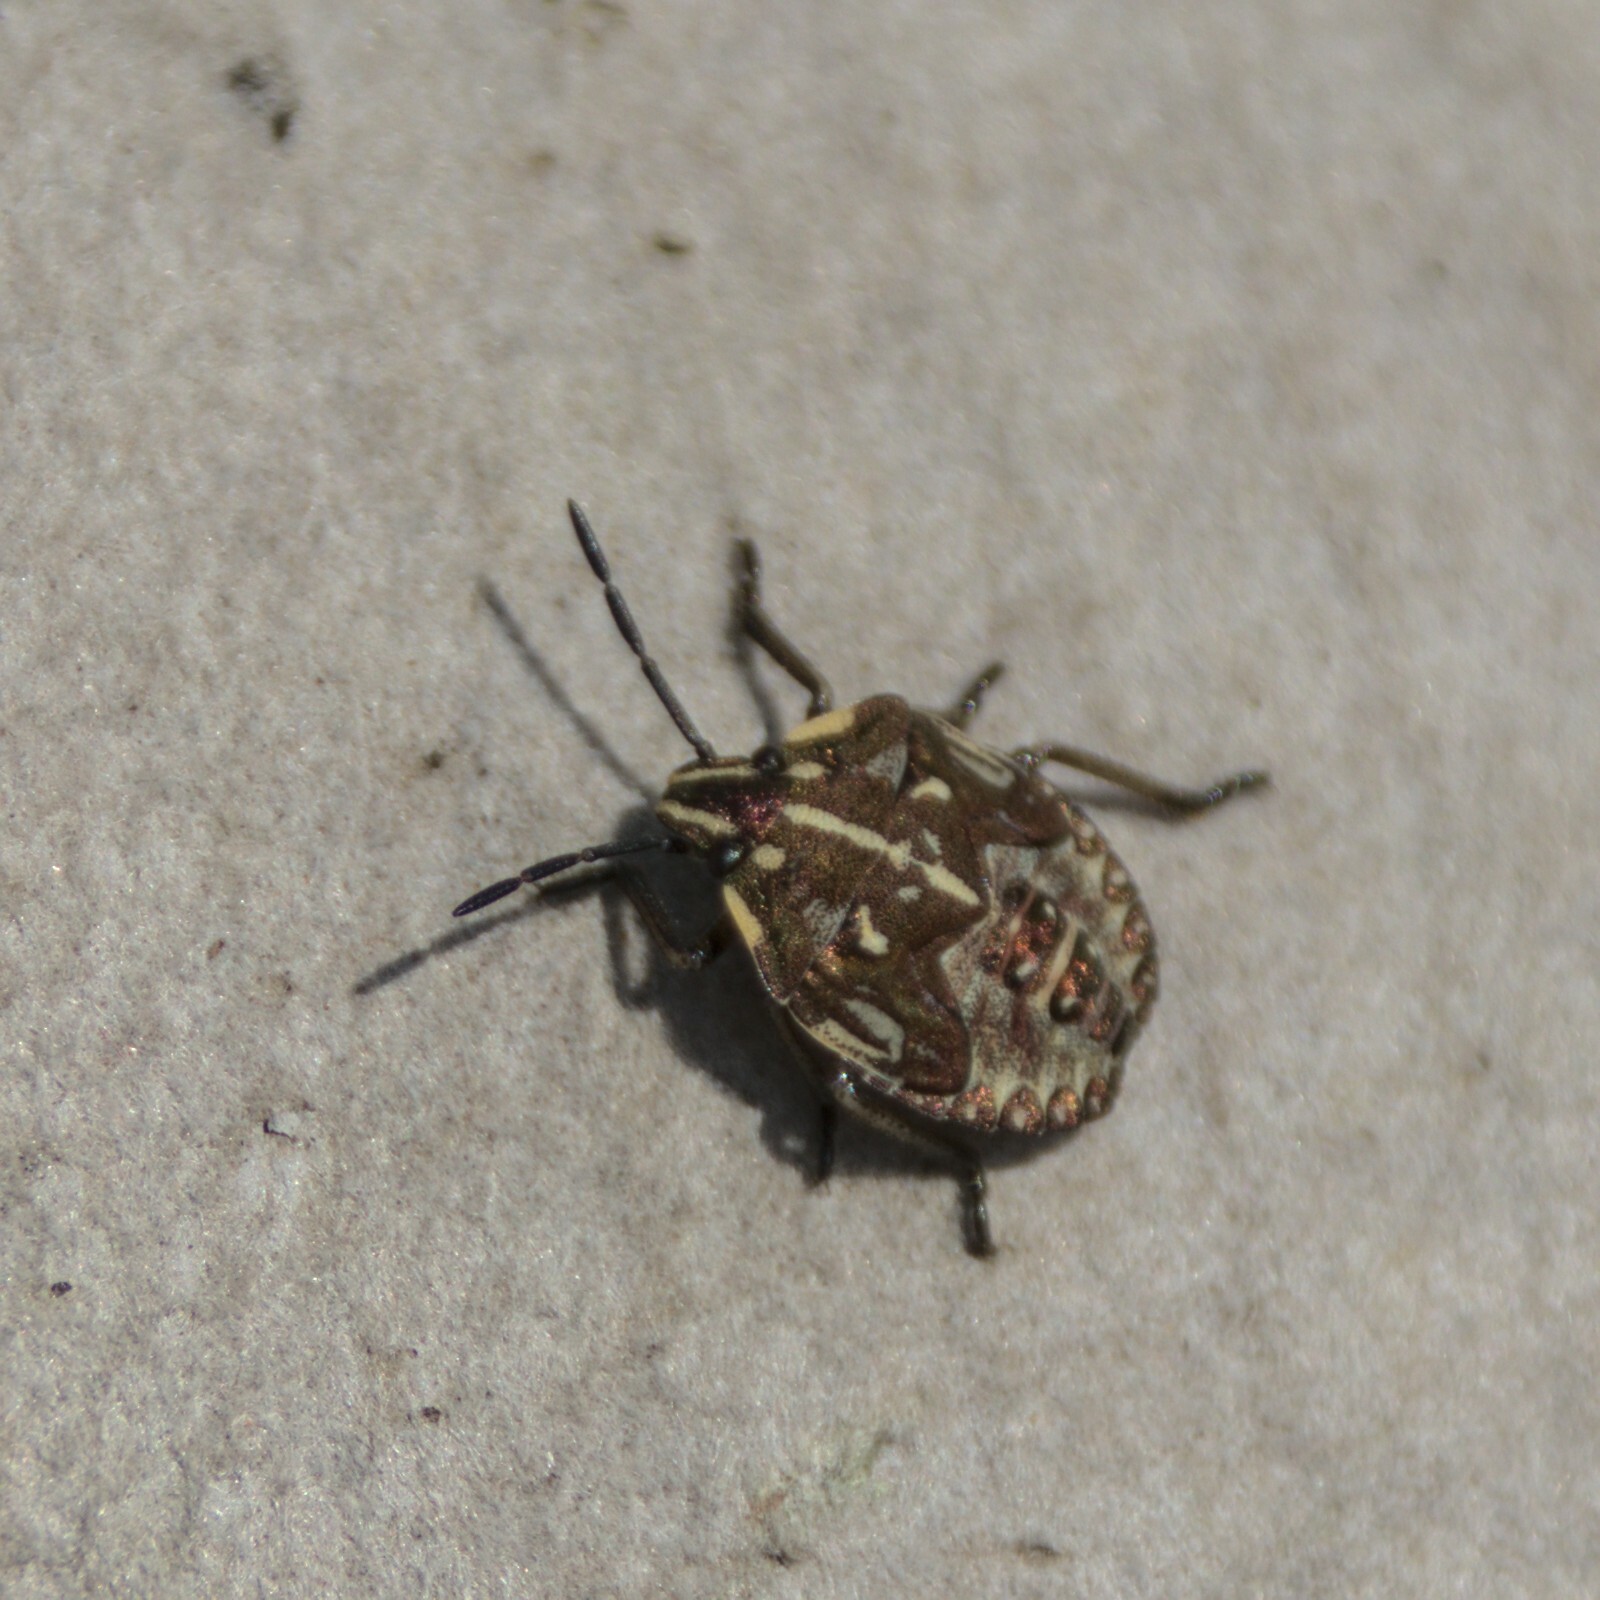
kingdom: Animalia
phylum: Arthropoda
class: Insecta
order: Hemiptera
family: Pentatomidae
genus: Carpocoris
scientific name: Carpocoris purpureipennis
